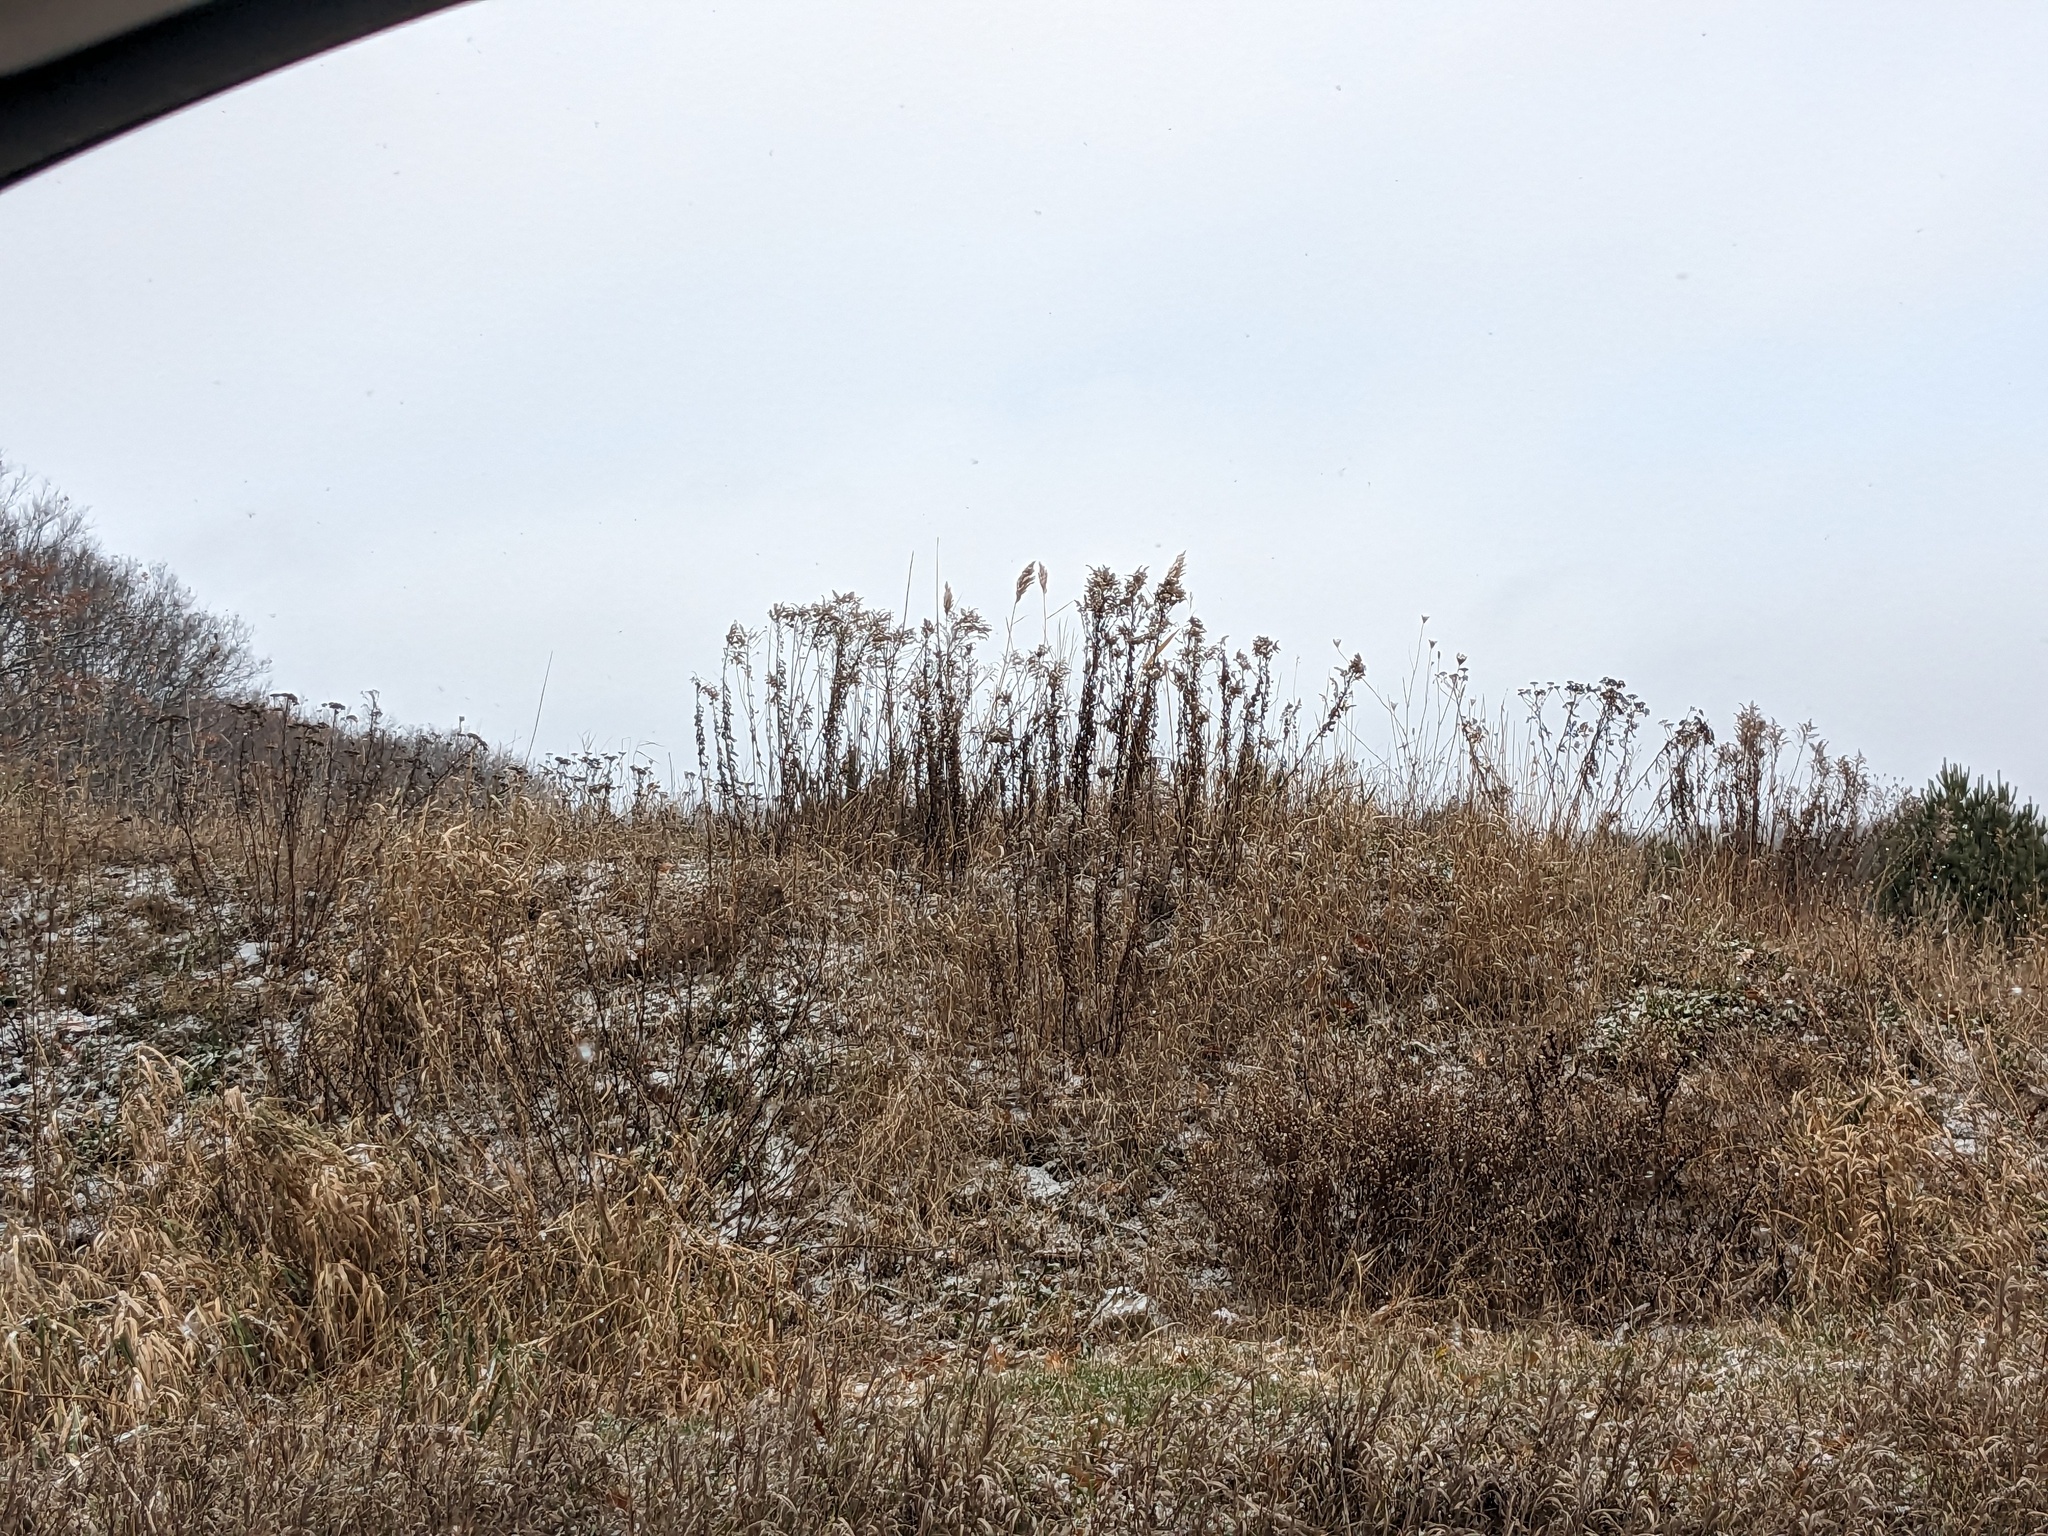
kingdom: Plantae
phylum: Tracheophyta
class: Liliopsida
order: Poales
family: Poaceae
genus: Phragmites
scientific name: Phragmites australis
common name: Common reed
